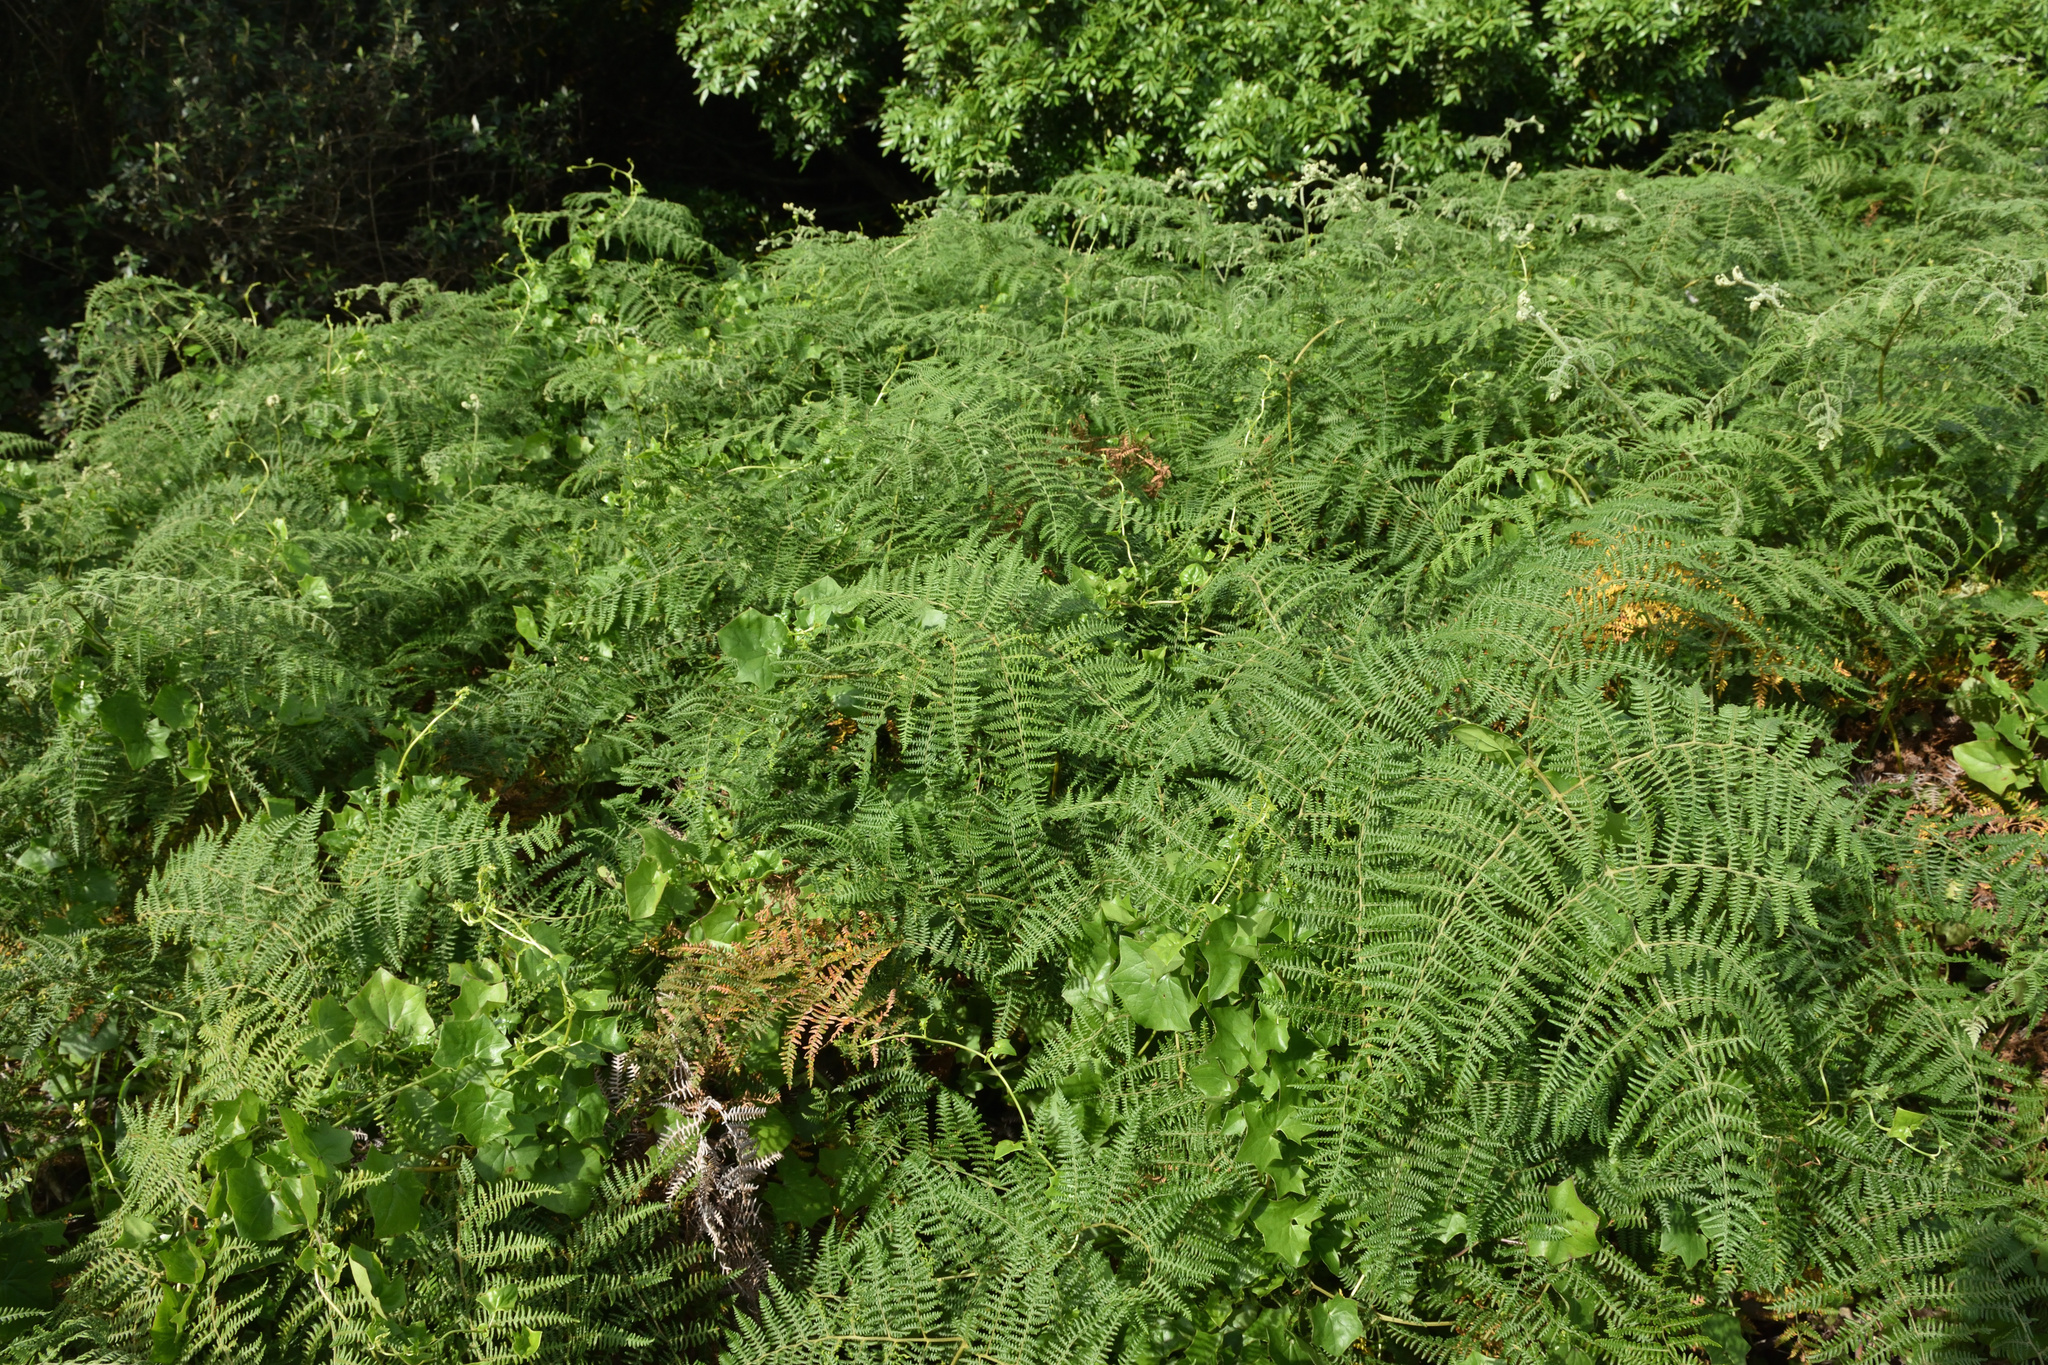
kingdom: Plantae
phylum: Tracheophyta
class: Polypodiopsida
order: Polypodiales
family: Dennstaedtiaceae
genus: Pteridium
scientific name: Pteridium aquilinum
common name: Bracken
